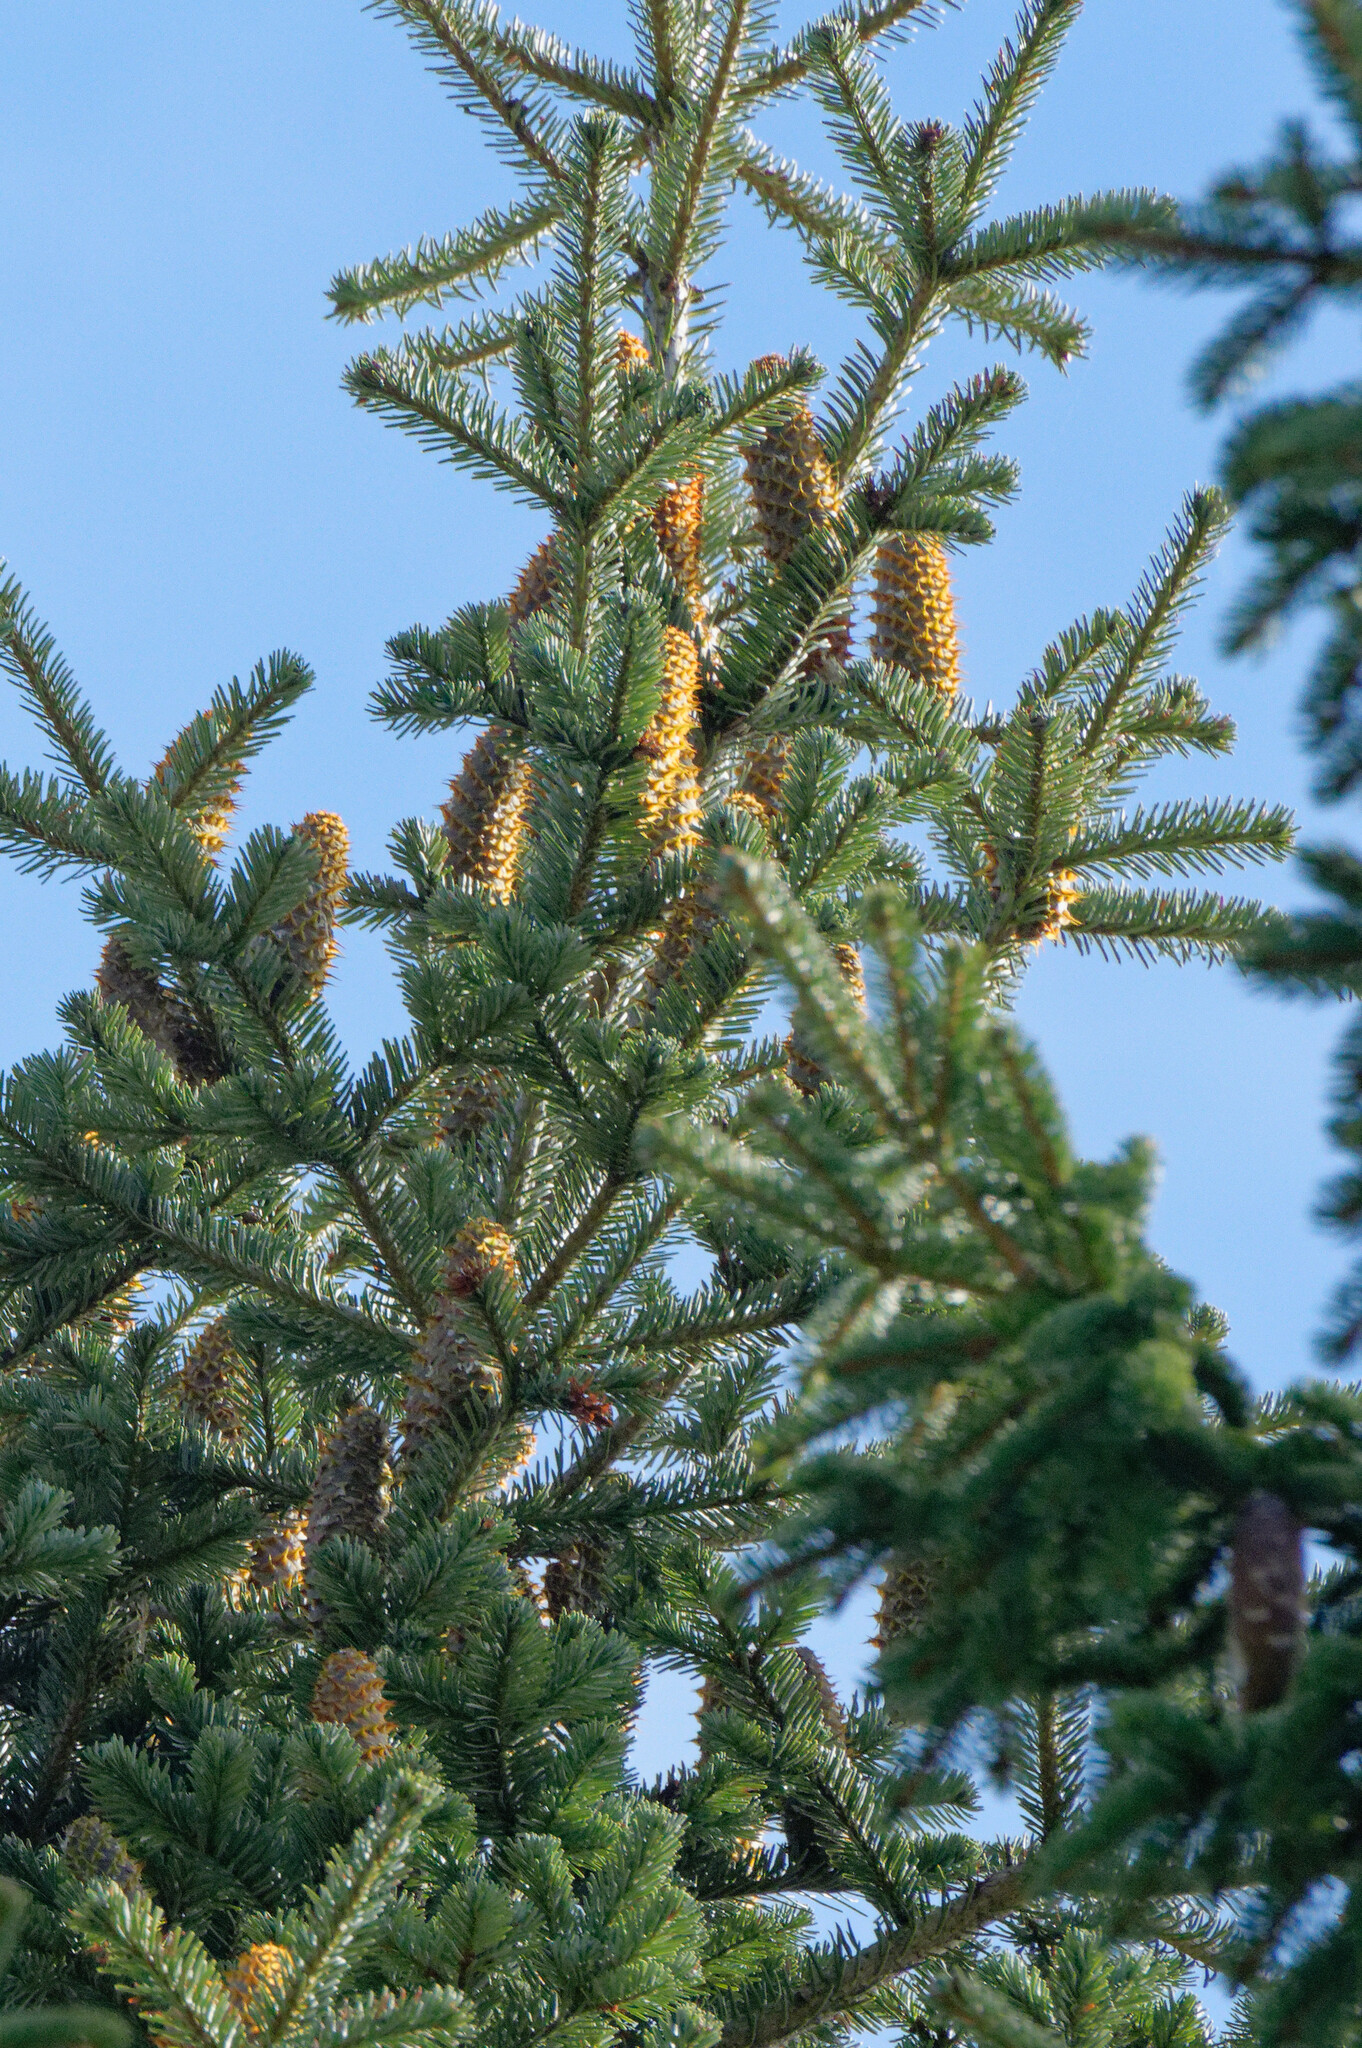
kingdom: Plantae
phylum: Tracheophyta
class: Pinopsida
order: Pinales
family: Pinaceae
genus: Abies
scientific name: Abies alba
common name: Silver fir
